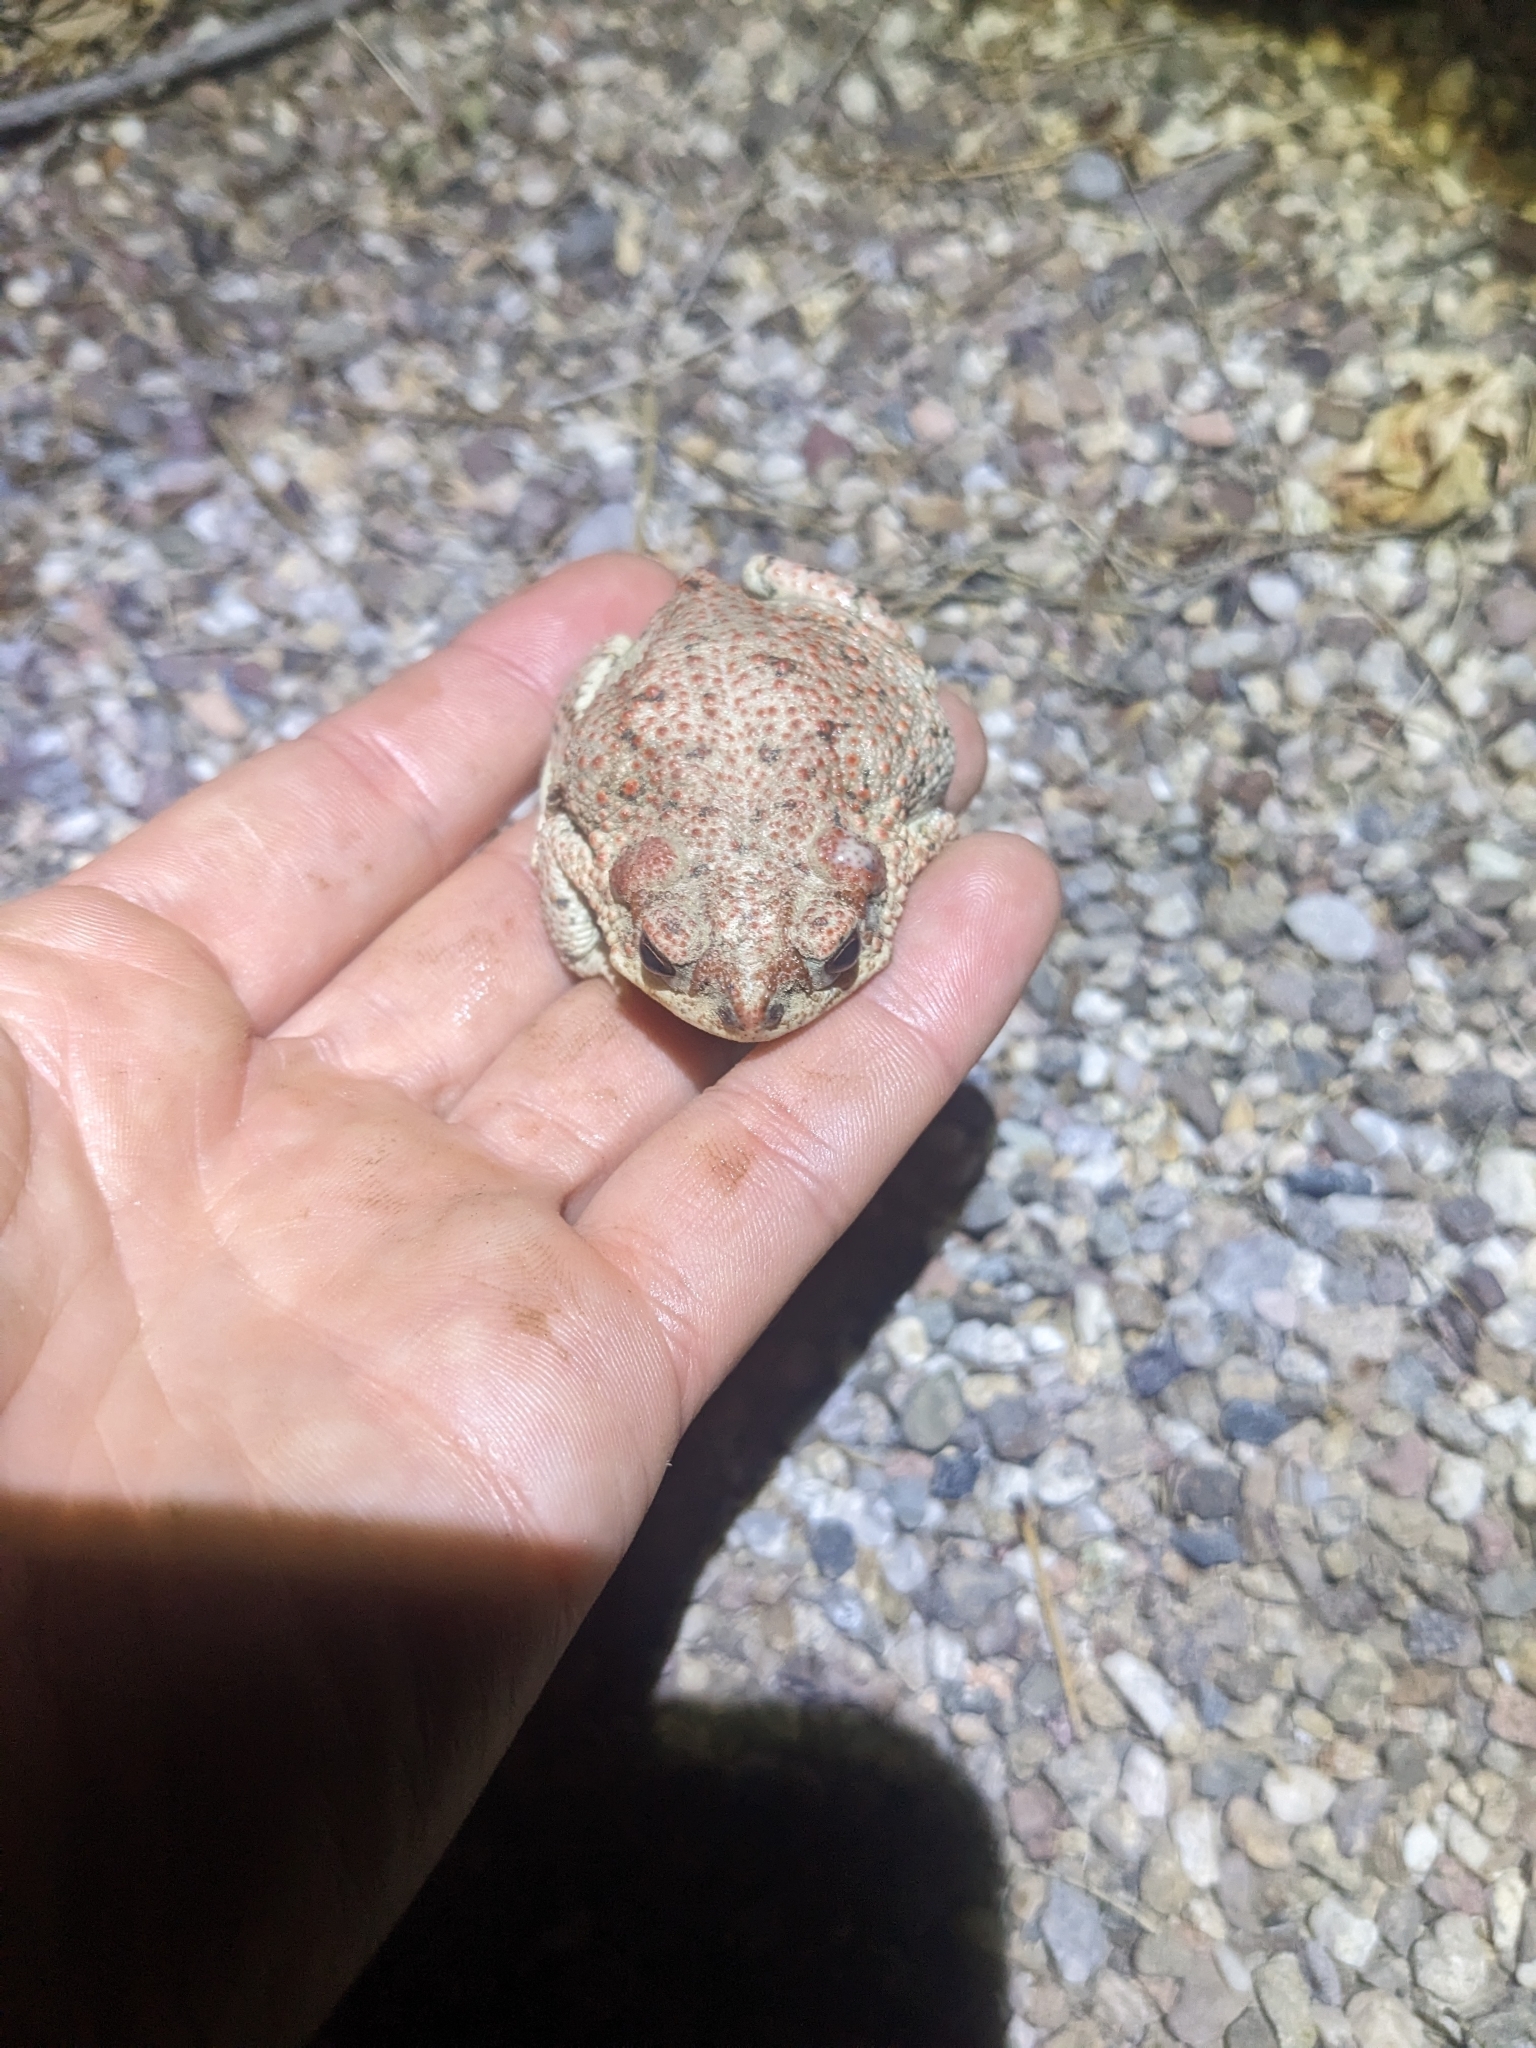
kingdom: Animalia
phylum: Chordata
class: Amphibia
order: Anura
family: Bufonidae
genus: Anaxyrus
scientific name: Anaxyrus punctatus
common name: Red-spotted toad
